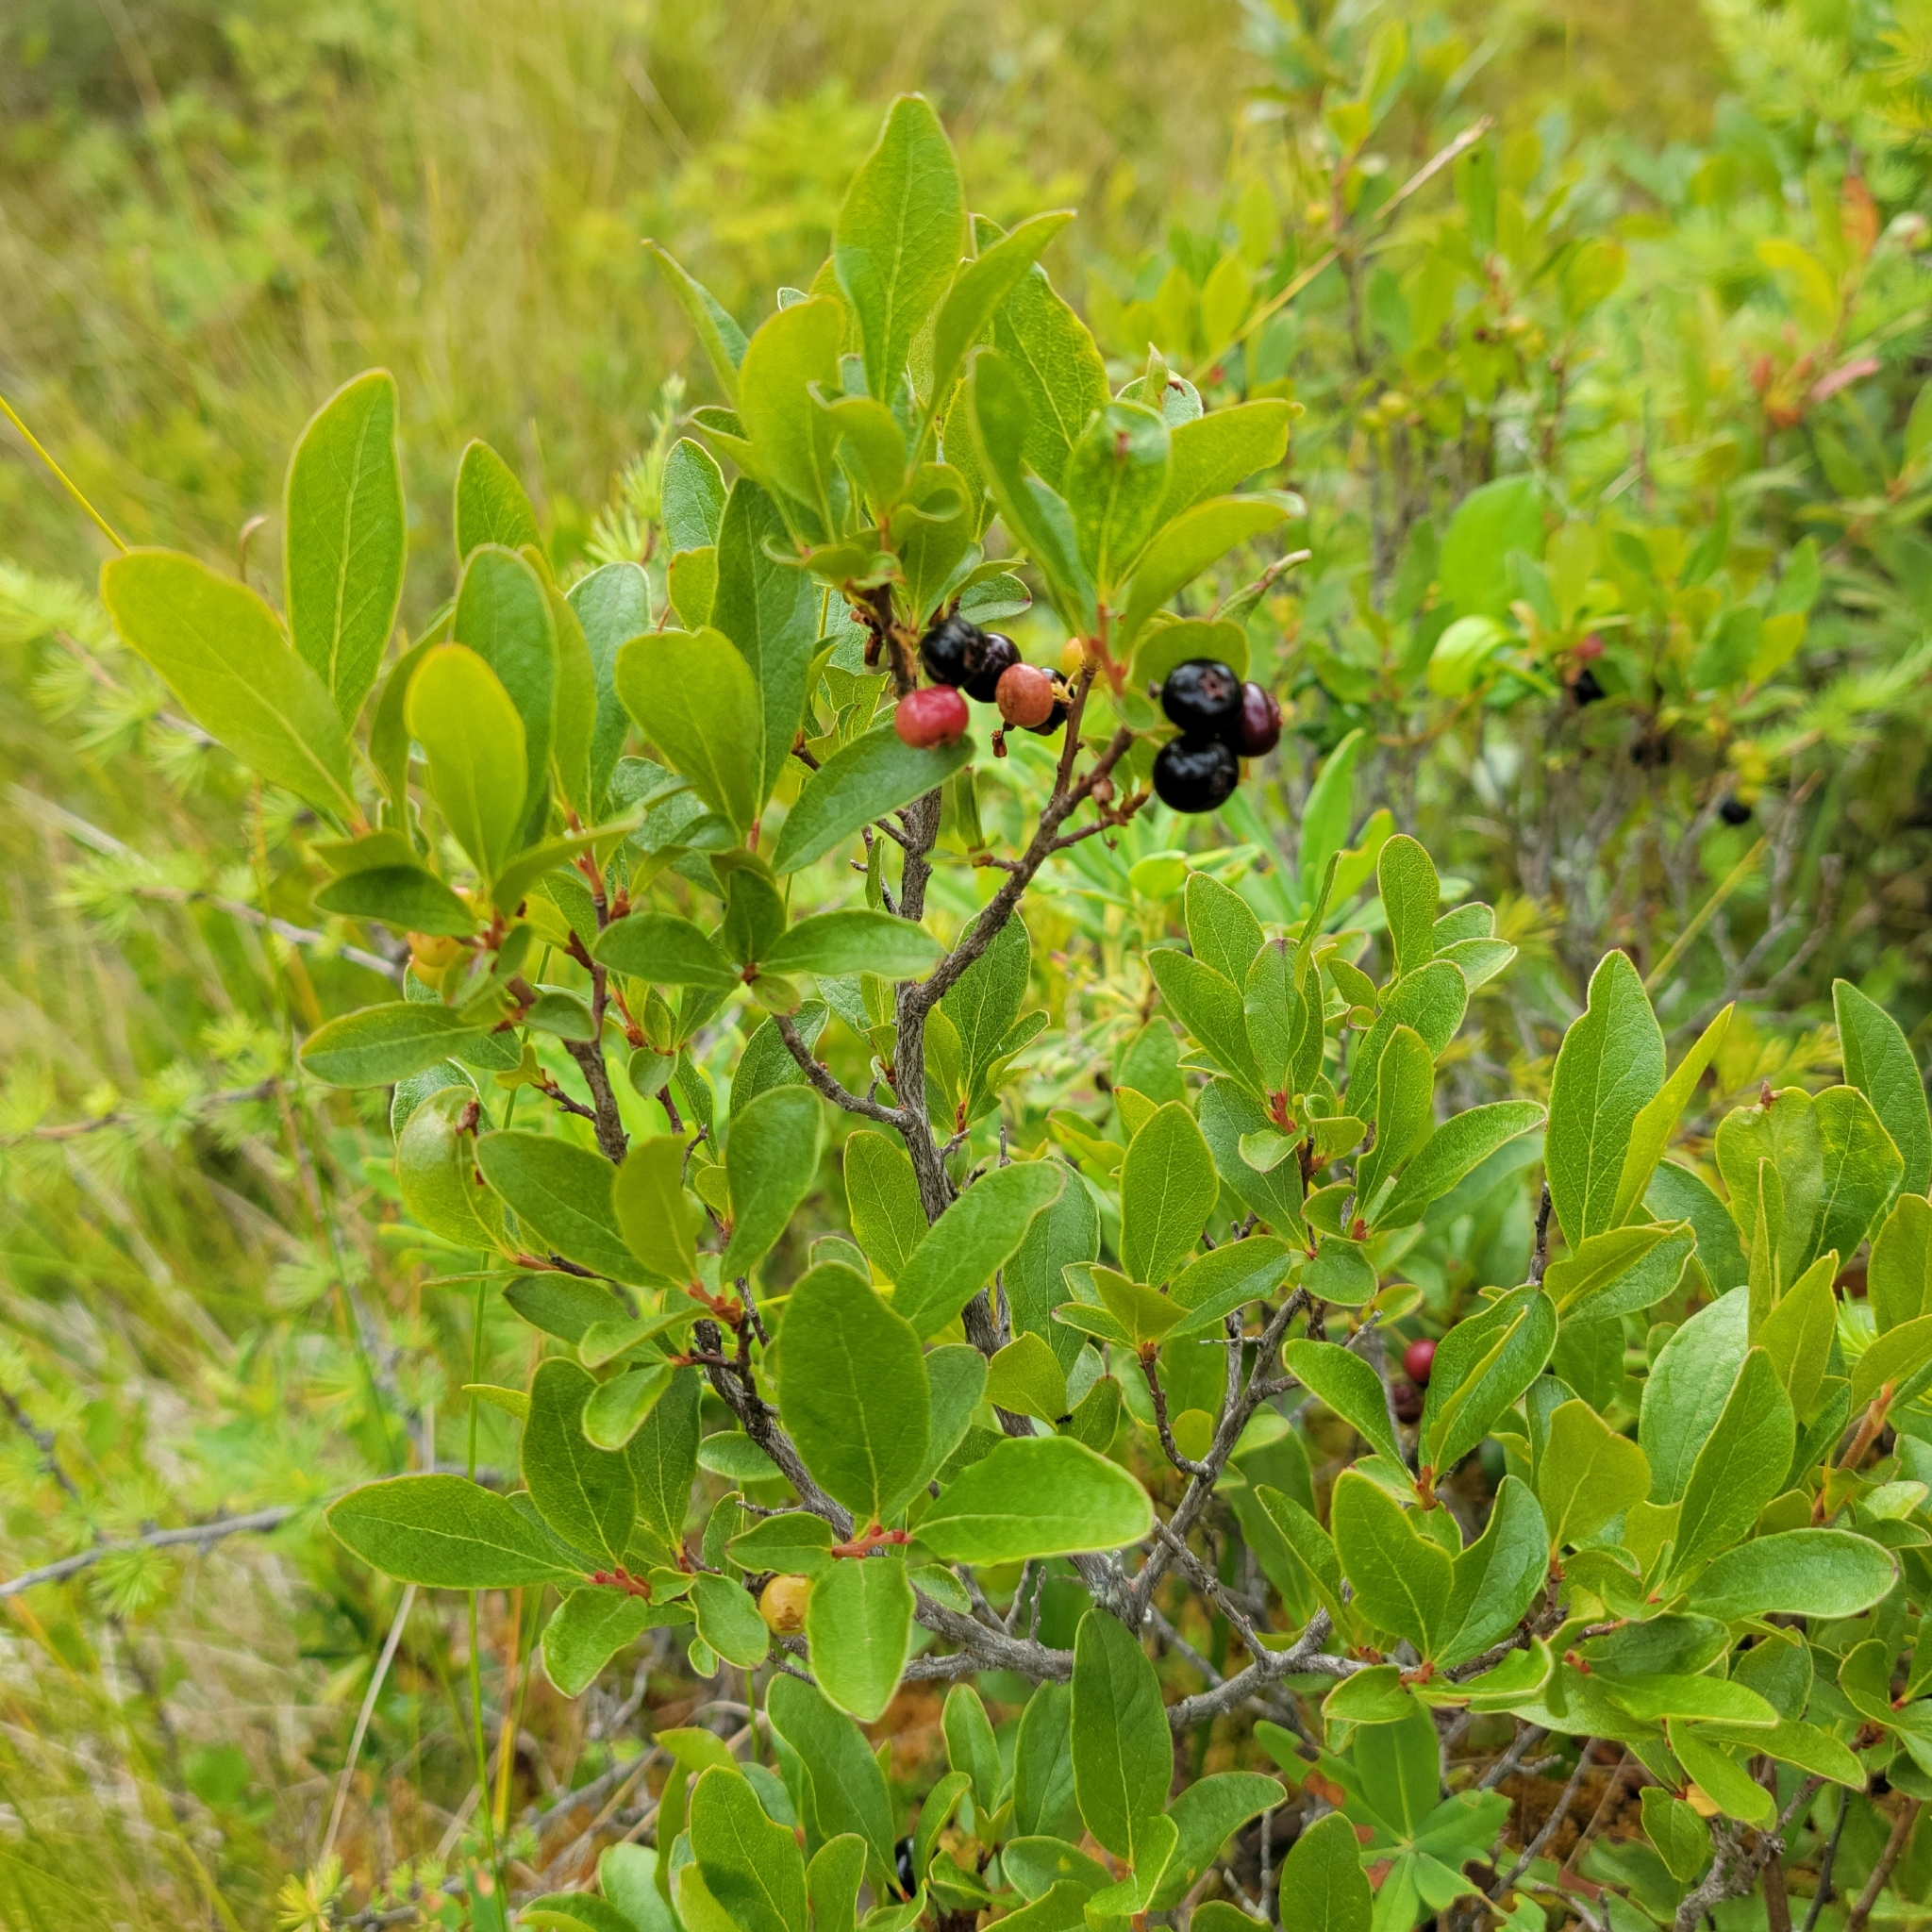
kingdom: Plantae
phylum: Tracheophyta
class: Magnoliopsida
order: Ericales
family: Ericaceae
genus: Gaylussacia
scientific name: Gaylussacia baccata
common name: Black huckleberry
